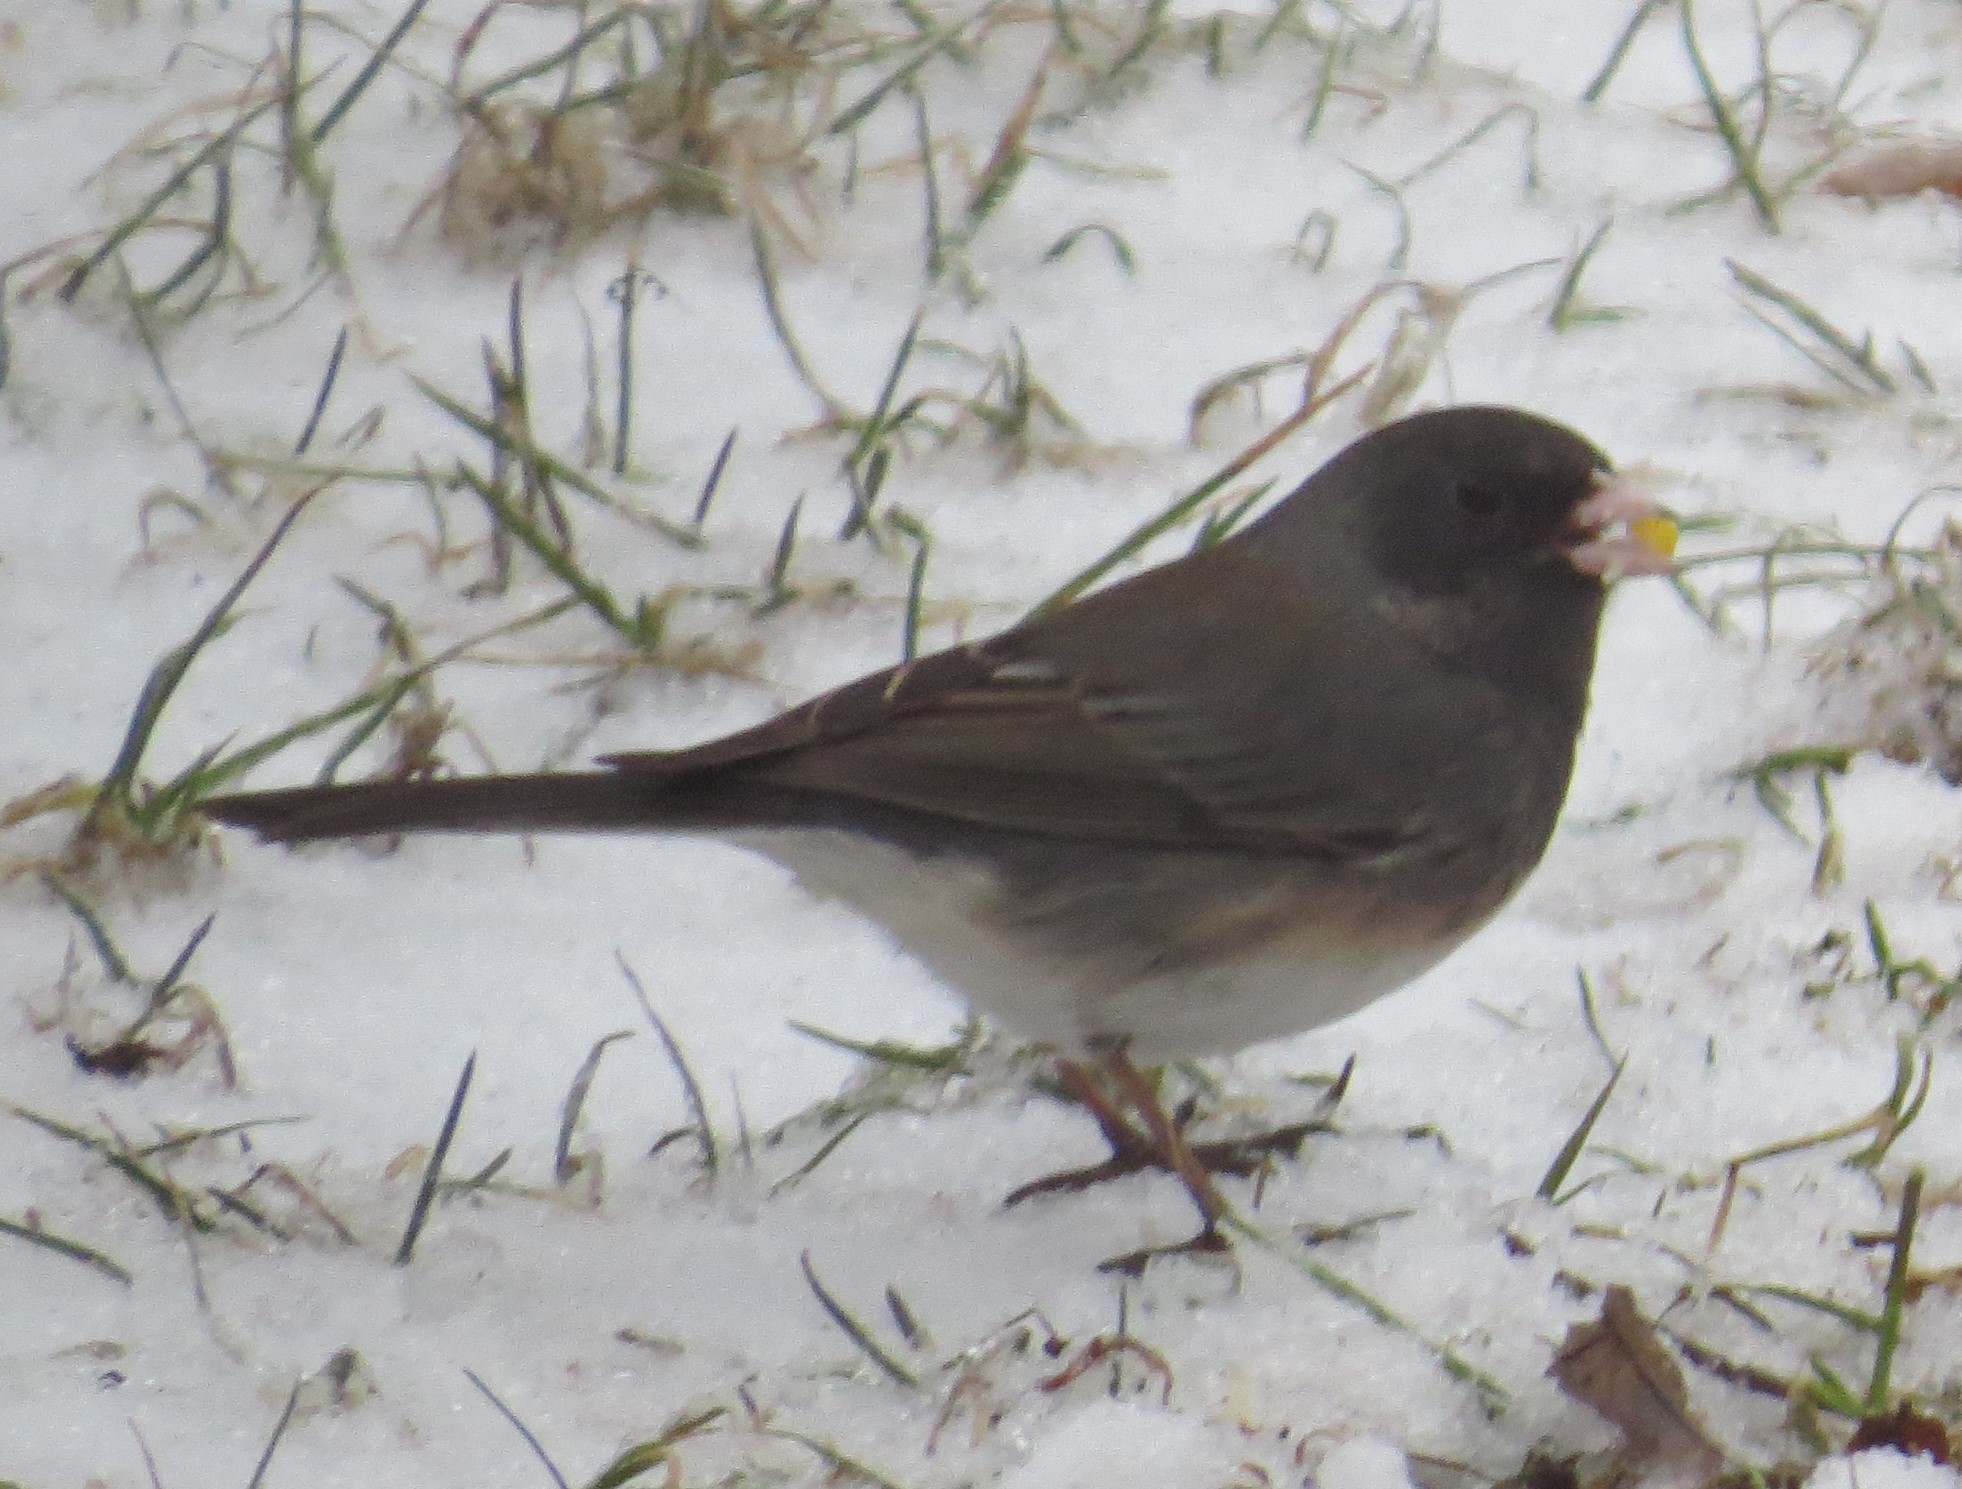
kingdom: Animalia
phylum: Chordata
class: Aves
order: Passeriformes
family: Passerellidae
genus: Junco
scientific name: Junco hyemalis
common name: Dark-eyed junco
